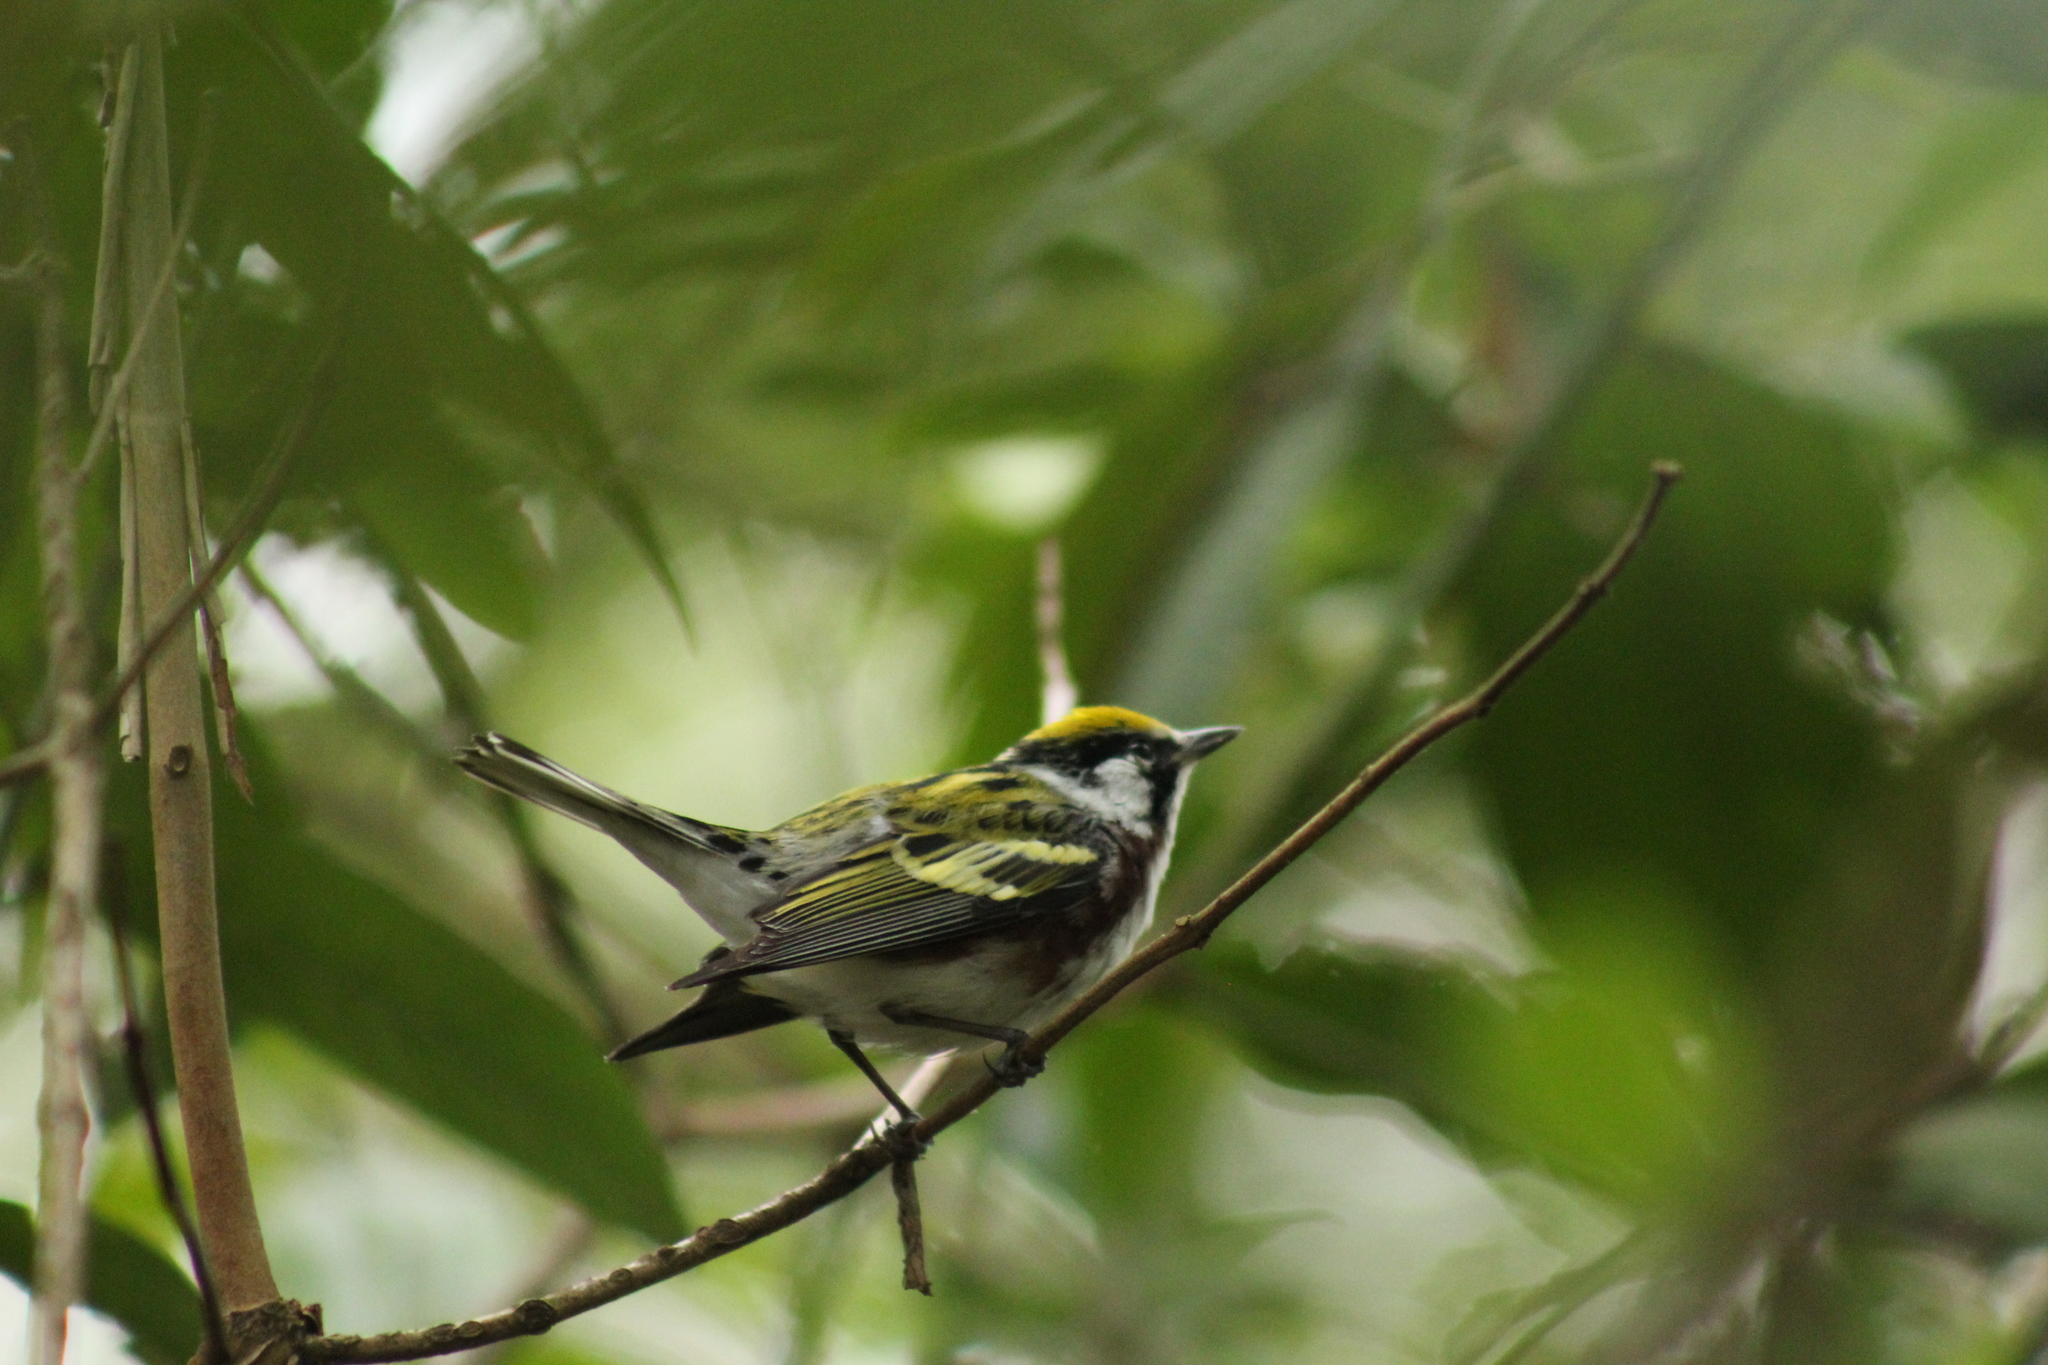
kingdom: Animalia
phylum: Chordata
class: Aves
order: Passeriformes
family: Parulidae
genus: Setophaga
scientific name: Setophaga pensylvanica
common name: Chestnut-sided warbler
